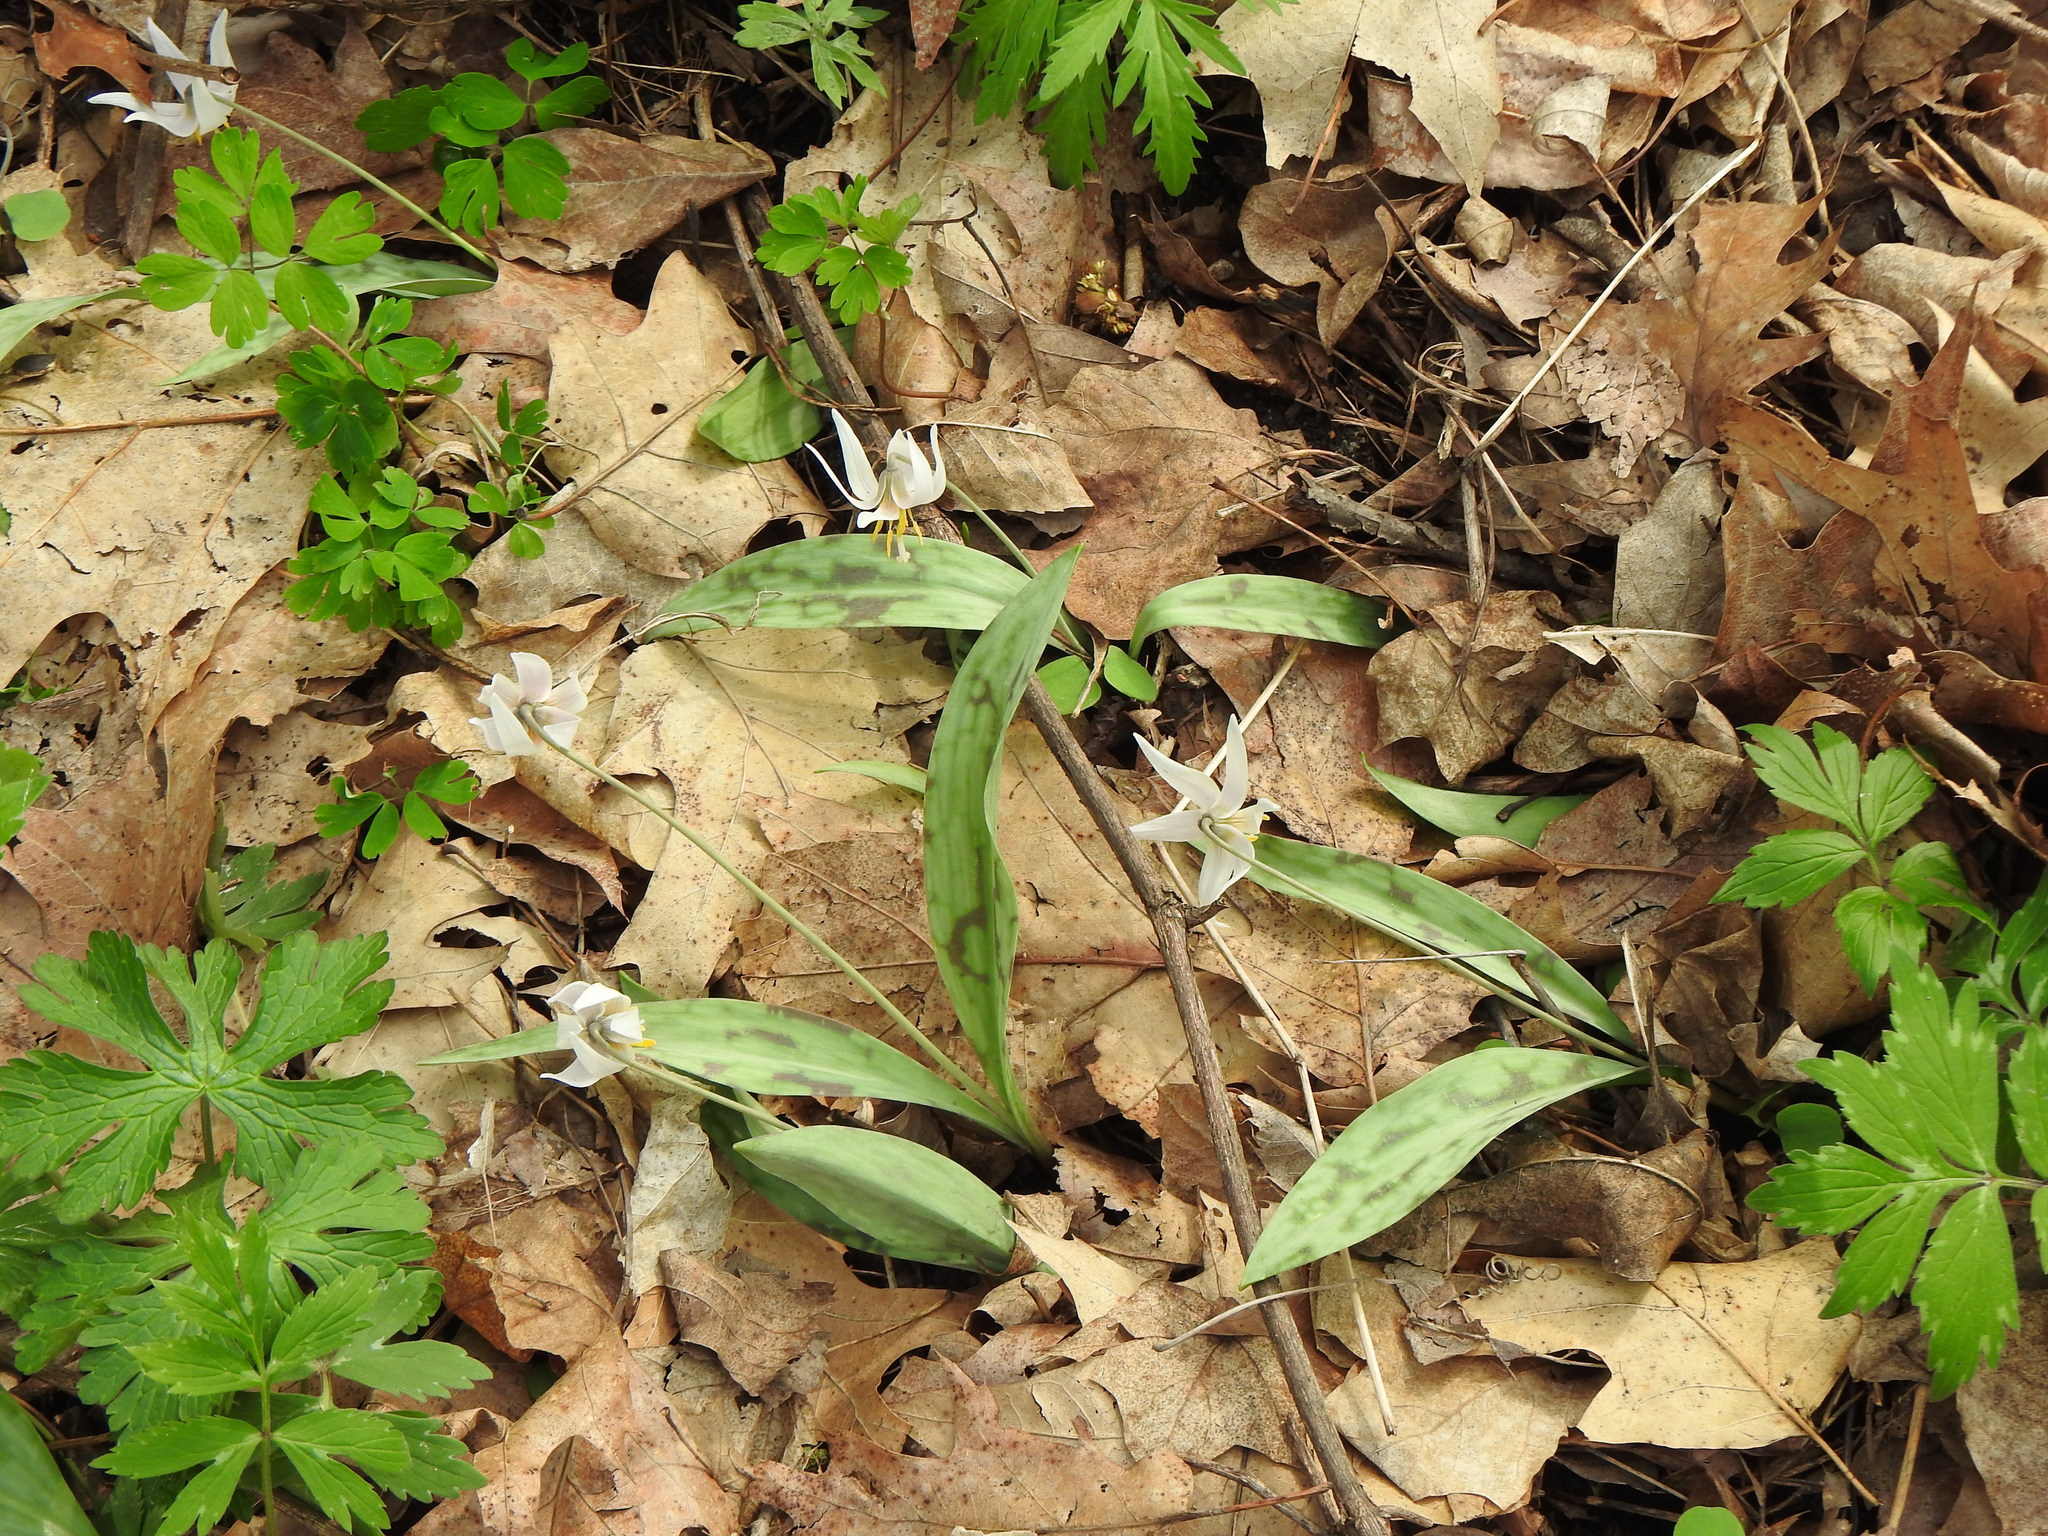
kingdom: Plantae
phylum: Tracheophyta
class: Liliopsida
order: Liliales
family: Liliaceae
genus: Erythronium
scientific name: Erythronium albidum
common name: White trout-lily
